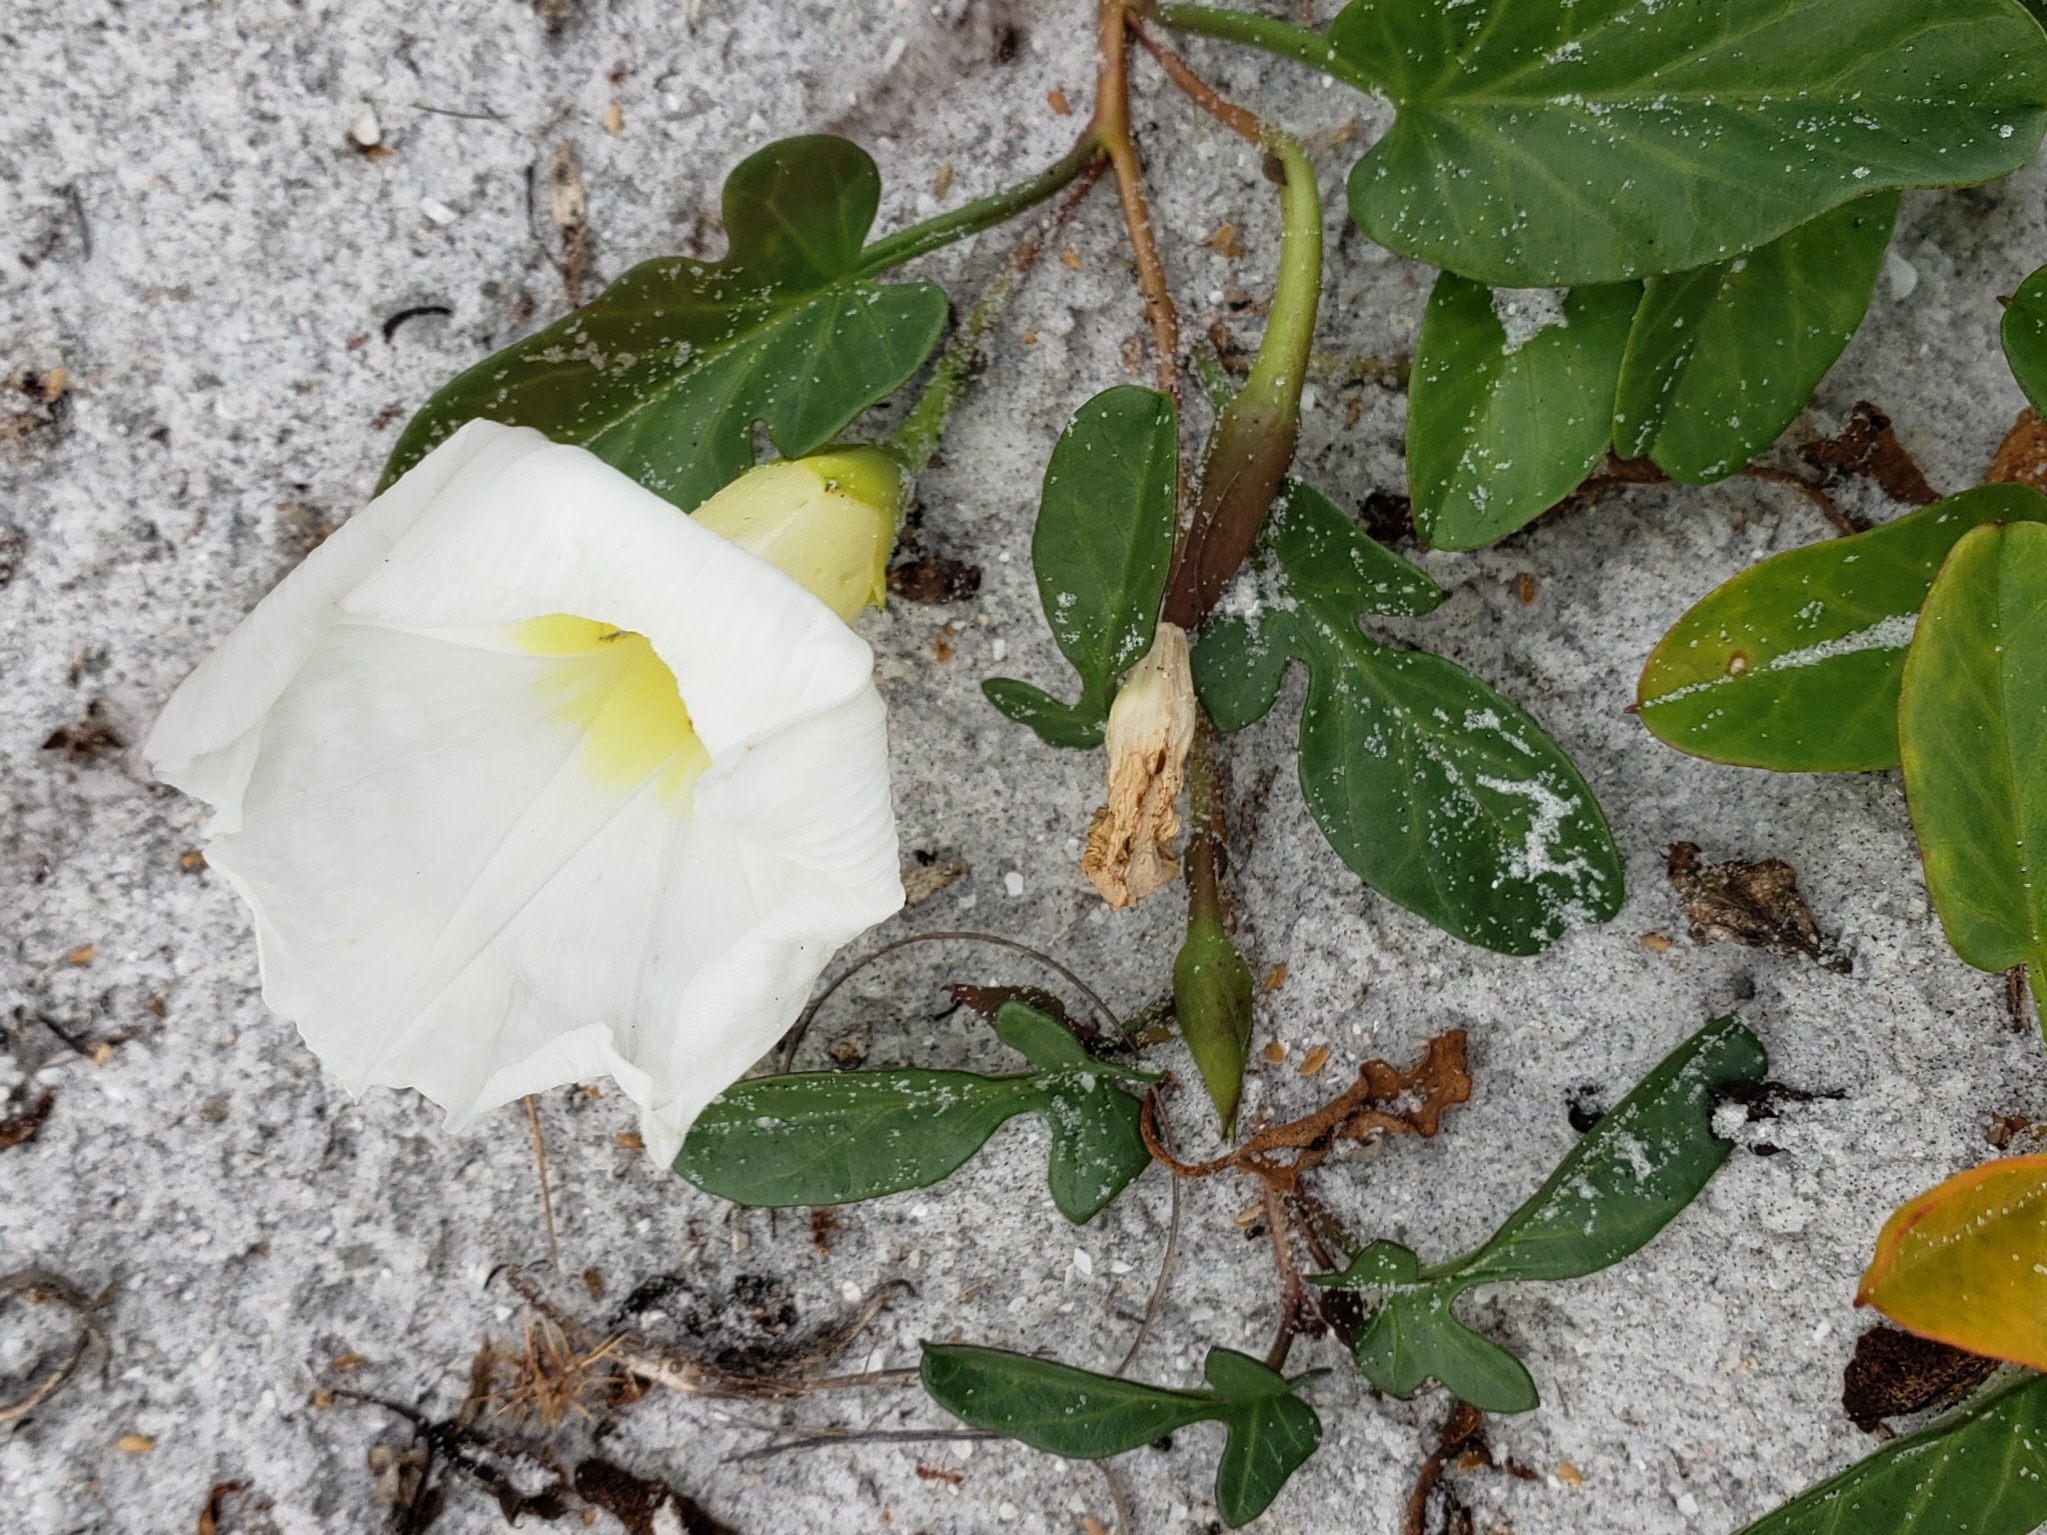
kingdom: Plantae
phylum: Tracheophyta
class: Magnoliopsida
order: Solanales
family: Convolvulaceae
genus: Ipomoea
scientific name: Ipomoea imperati
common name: Fiddle-leaf morning-glory
